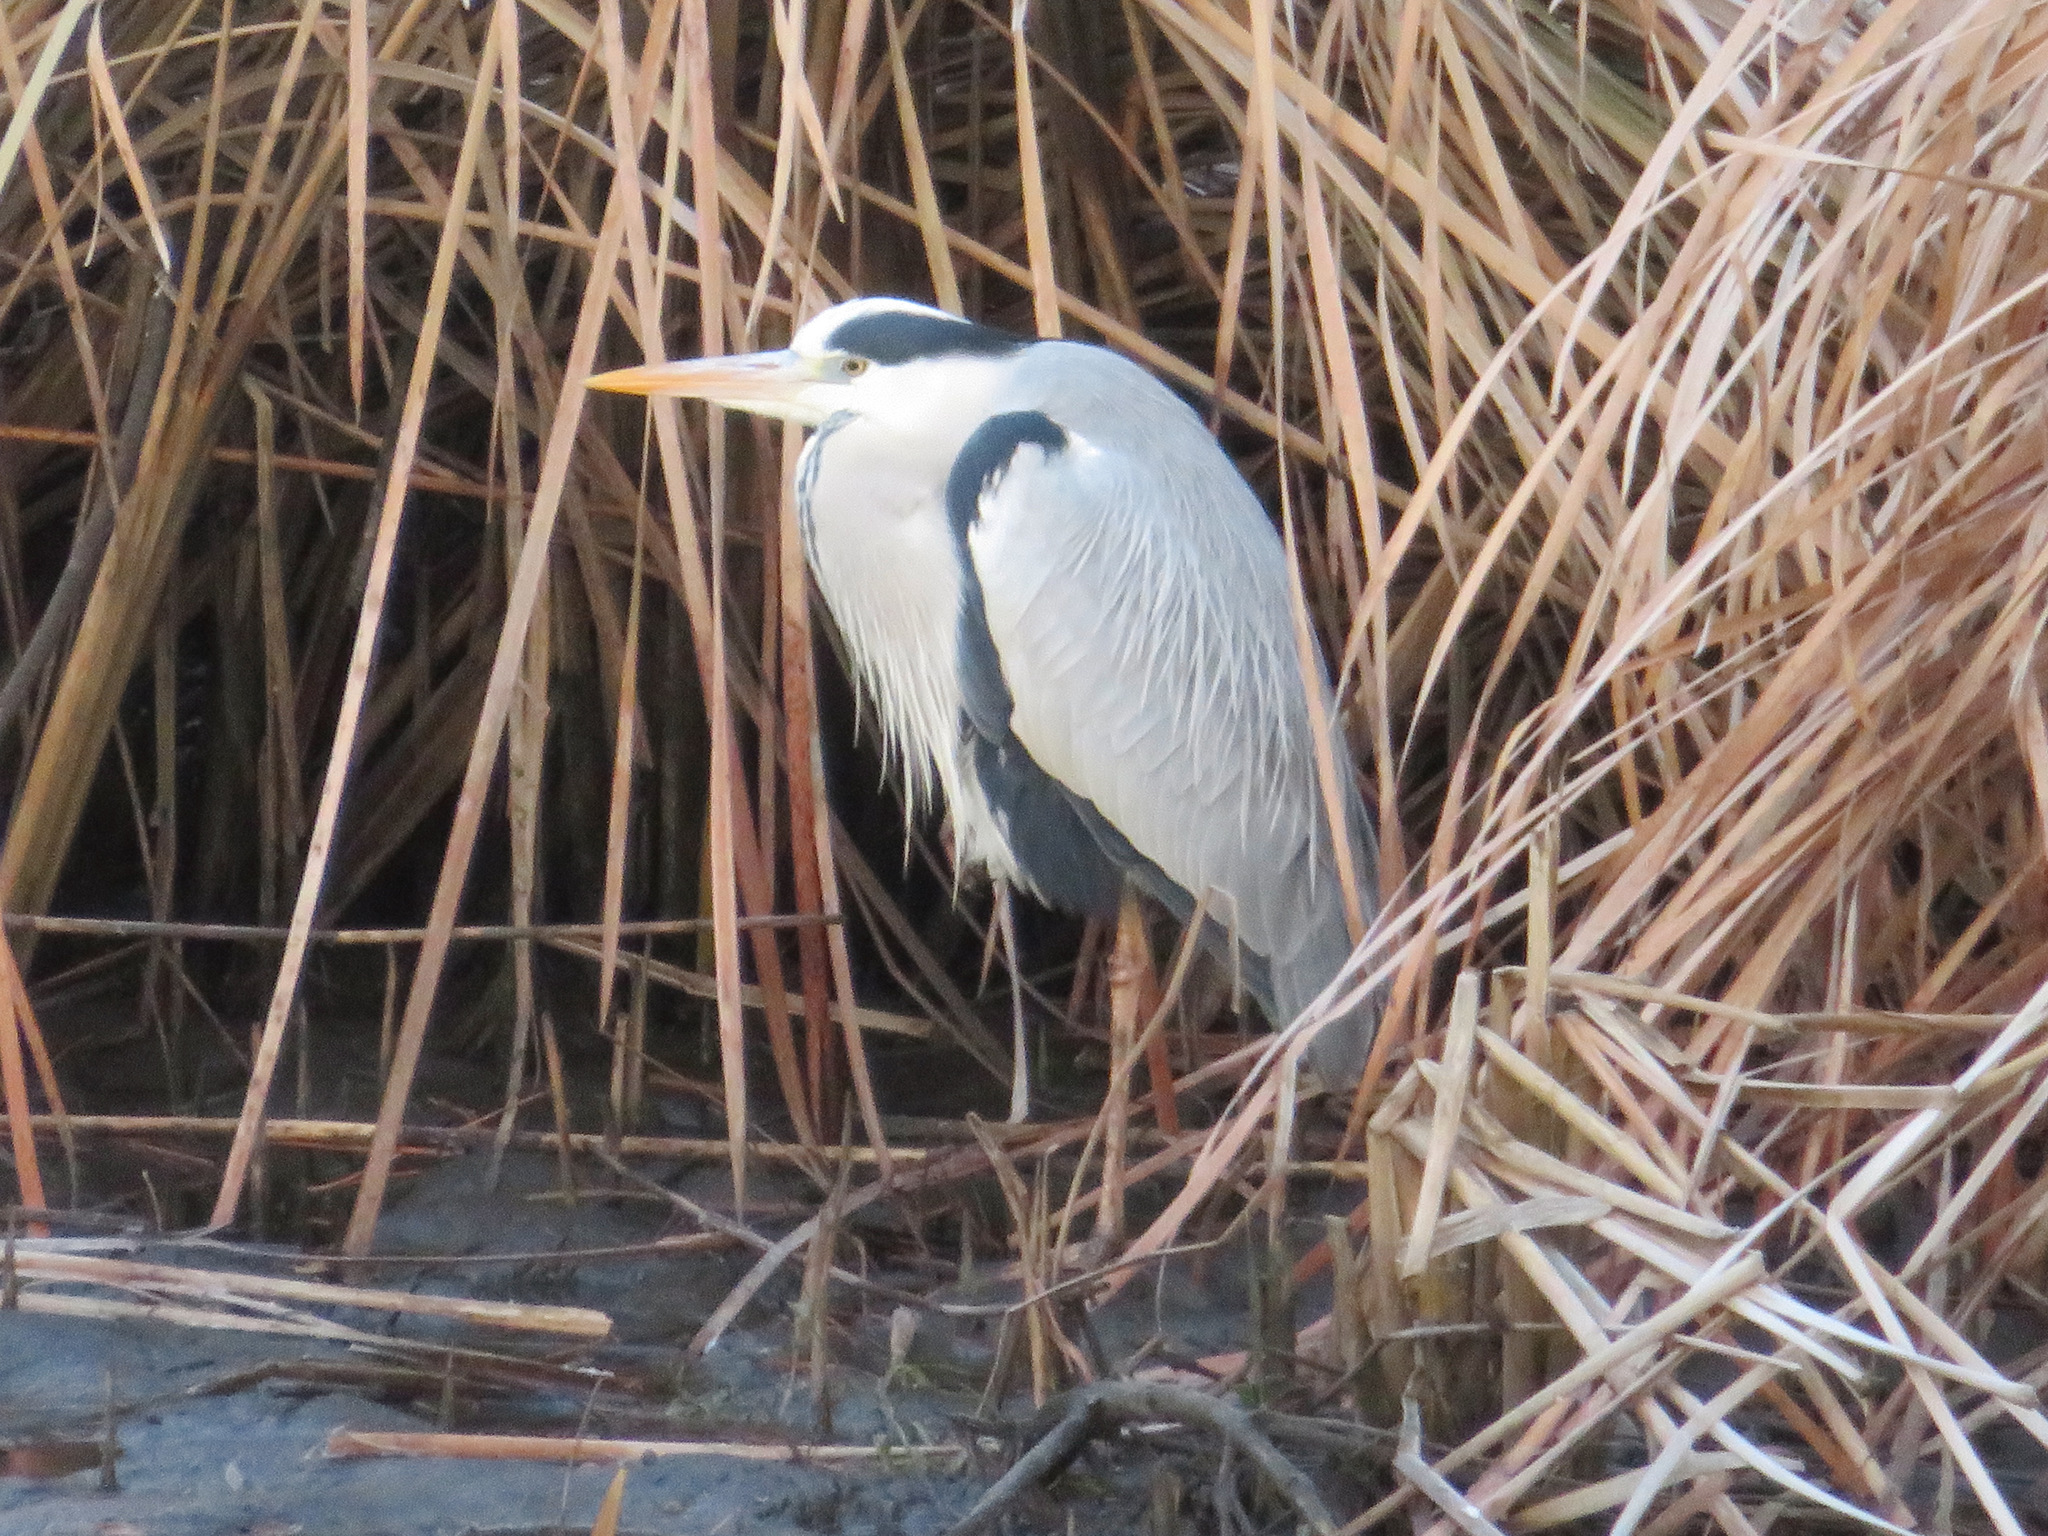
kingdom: Animalia
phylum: Chordata
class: Aves
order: Pelecaniformes
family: Ardeidae
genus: Ardea
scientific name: Ardea cinerea
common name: Grey heron
